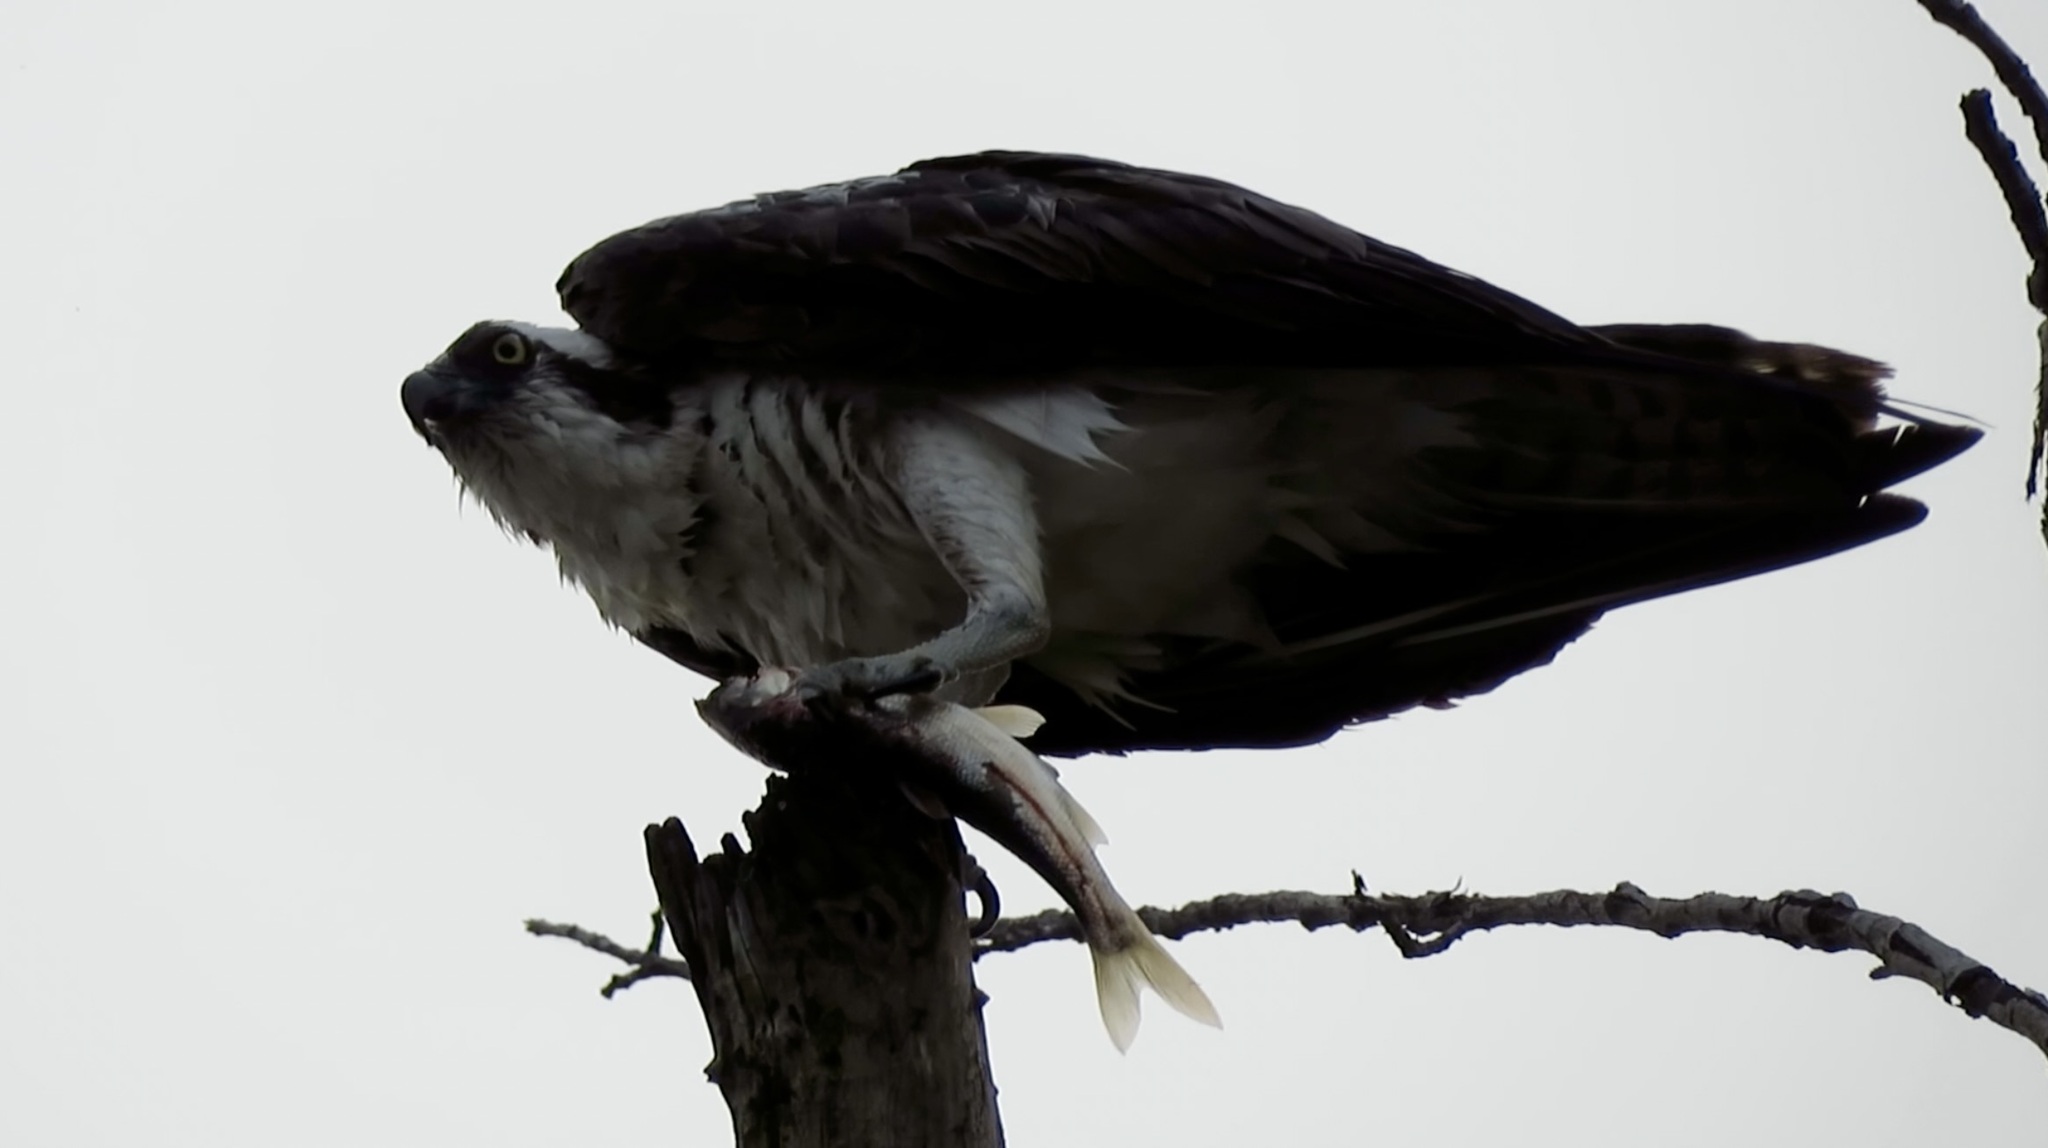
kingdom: Animalia
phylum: Chordata
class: Aves
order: Accipitriformes
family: Pandionidae
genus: Pandion
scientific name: Pandion haliaetus
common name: Osprey
